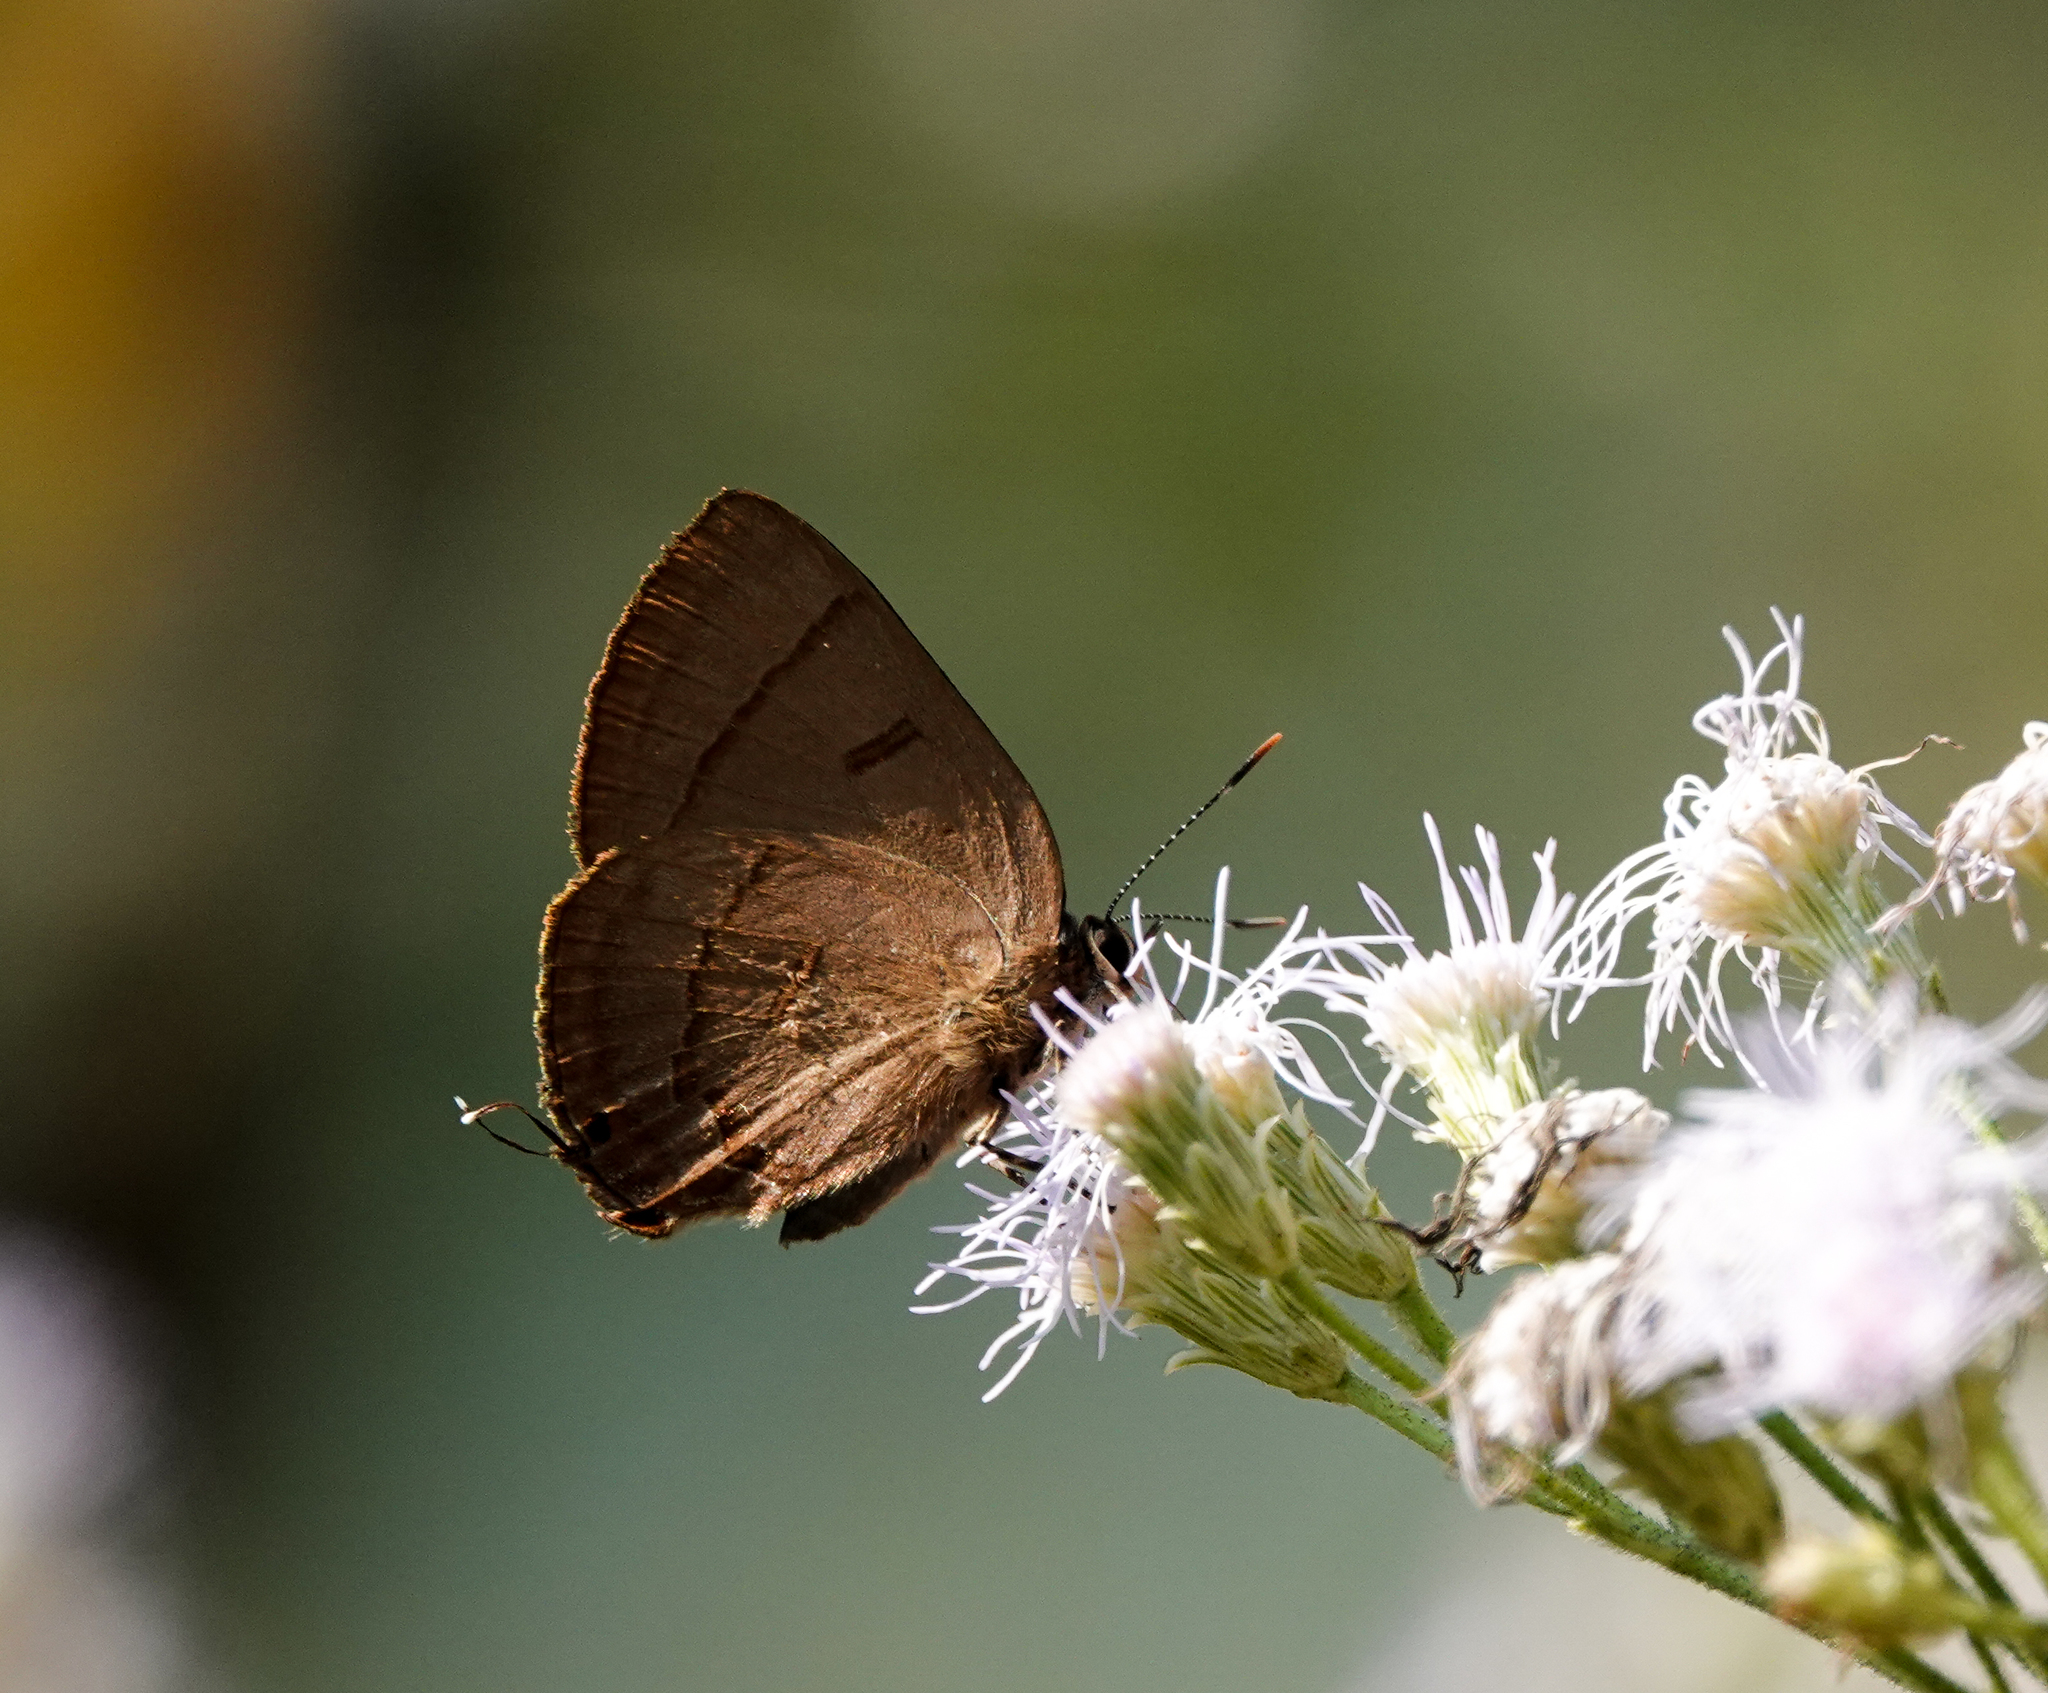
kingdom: Animalia
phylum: Arthropoda
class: Insecta
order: Lepidoptera
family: Lycaenidae
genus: Rapala
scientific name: Rapala manea
